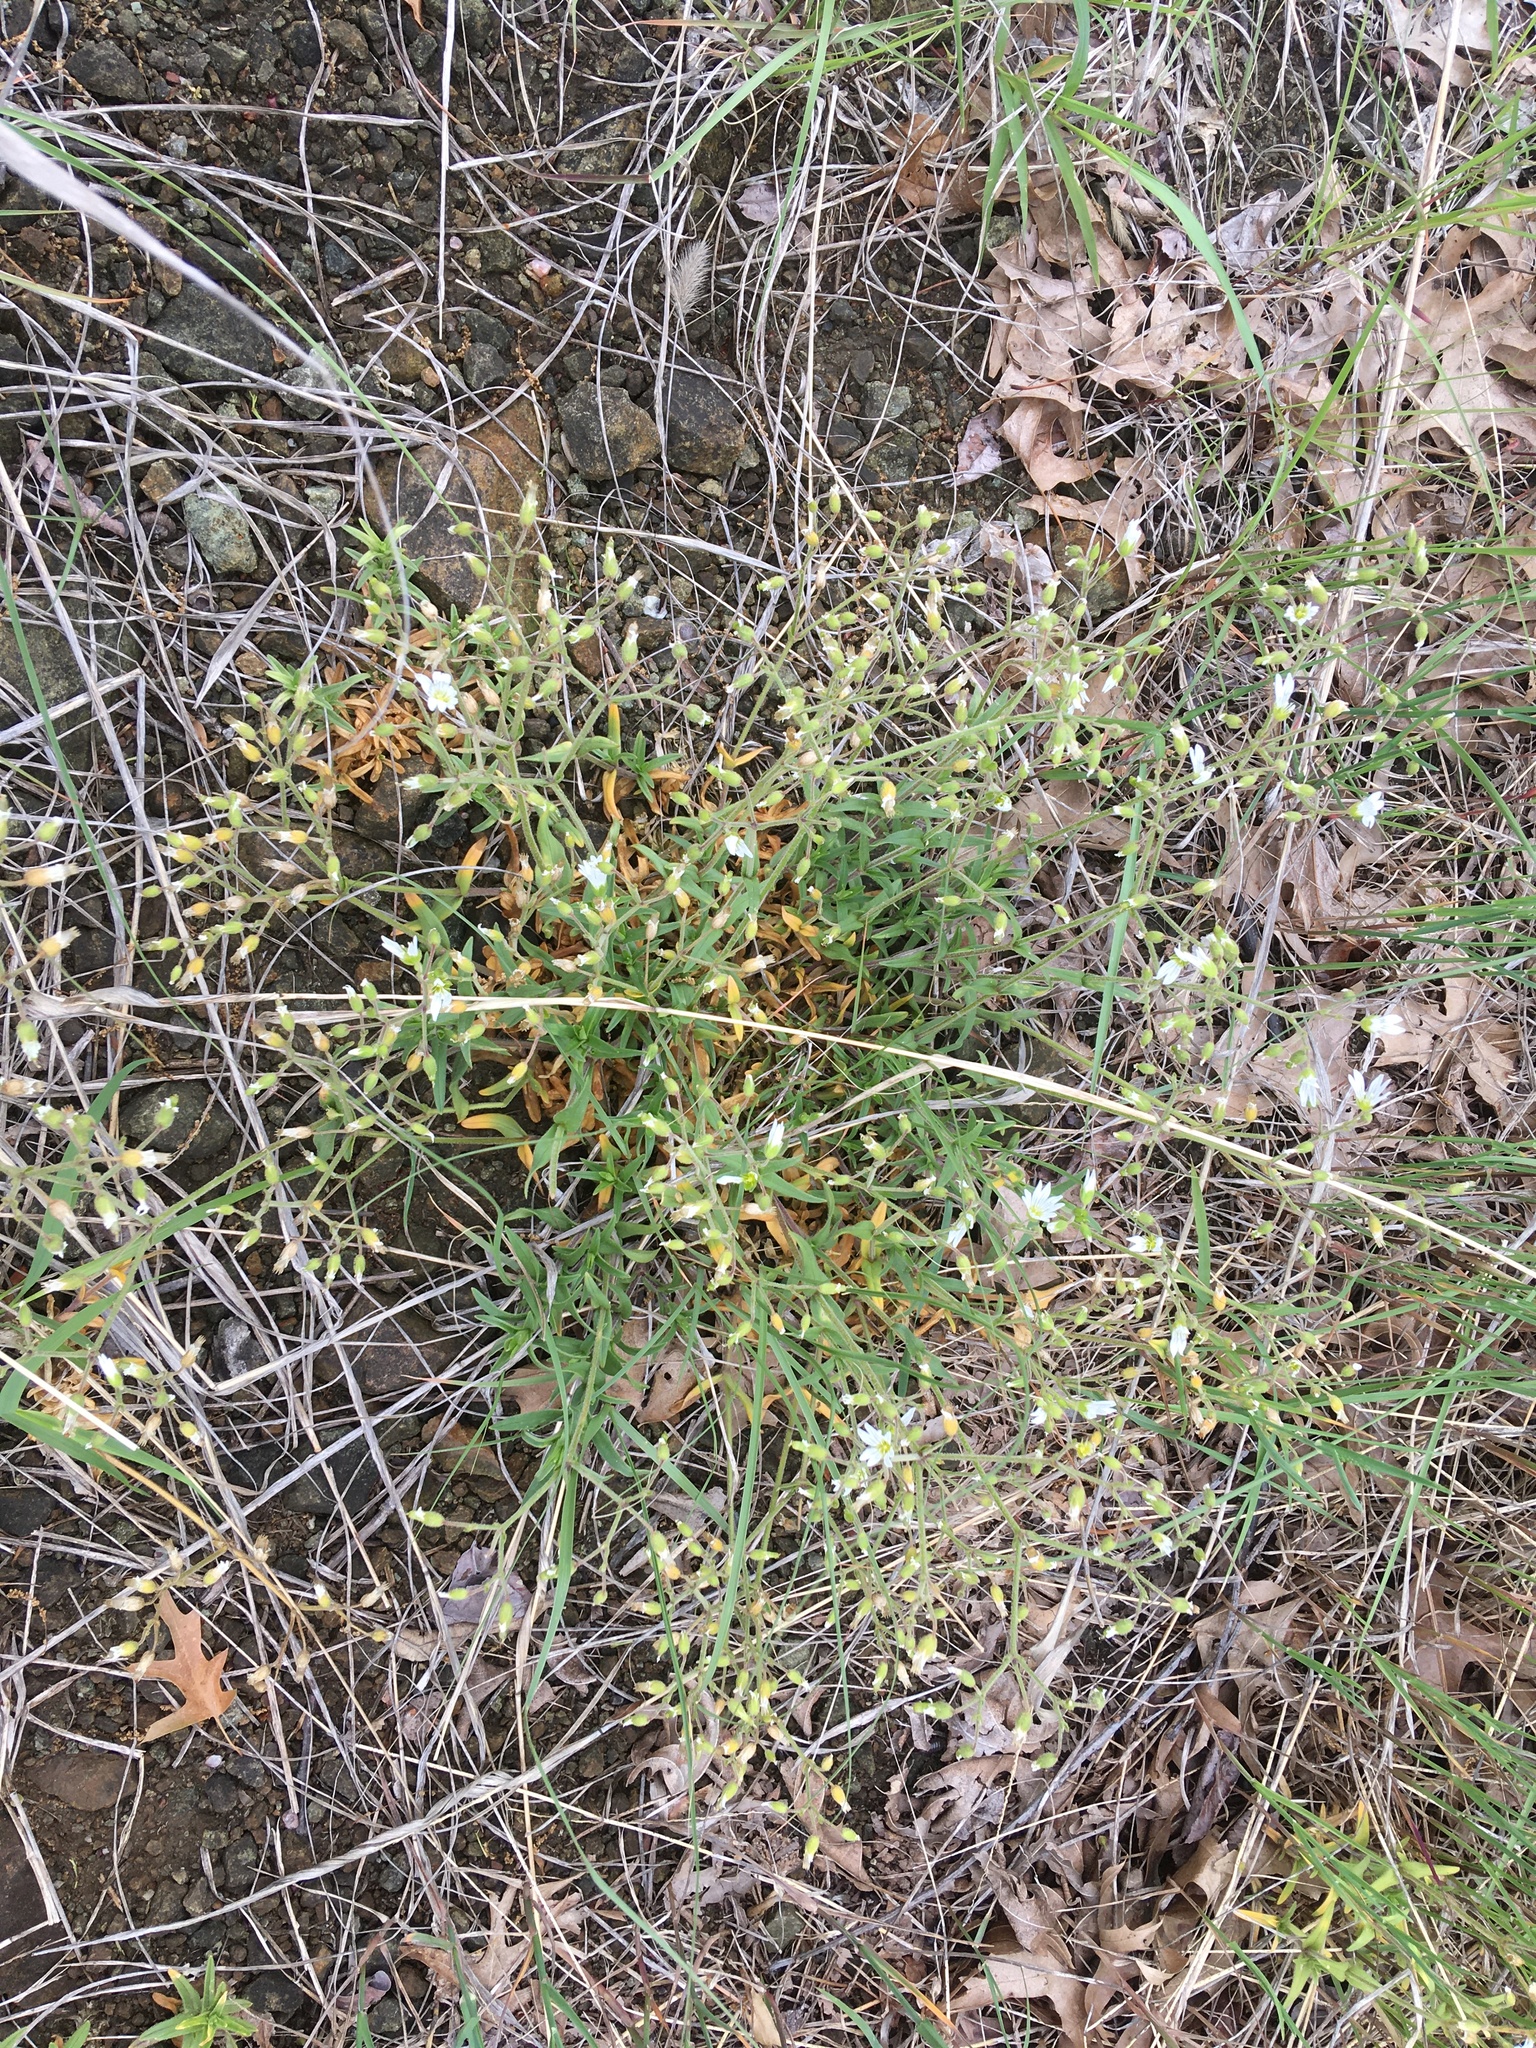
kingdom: Plantae
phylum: Tracheophyta
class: Magnoliopsida
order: Caryophyllales
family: Caryophyllaceae
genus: Cerastium
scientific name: Cerastium arvense
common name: Field mouse-ear
